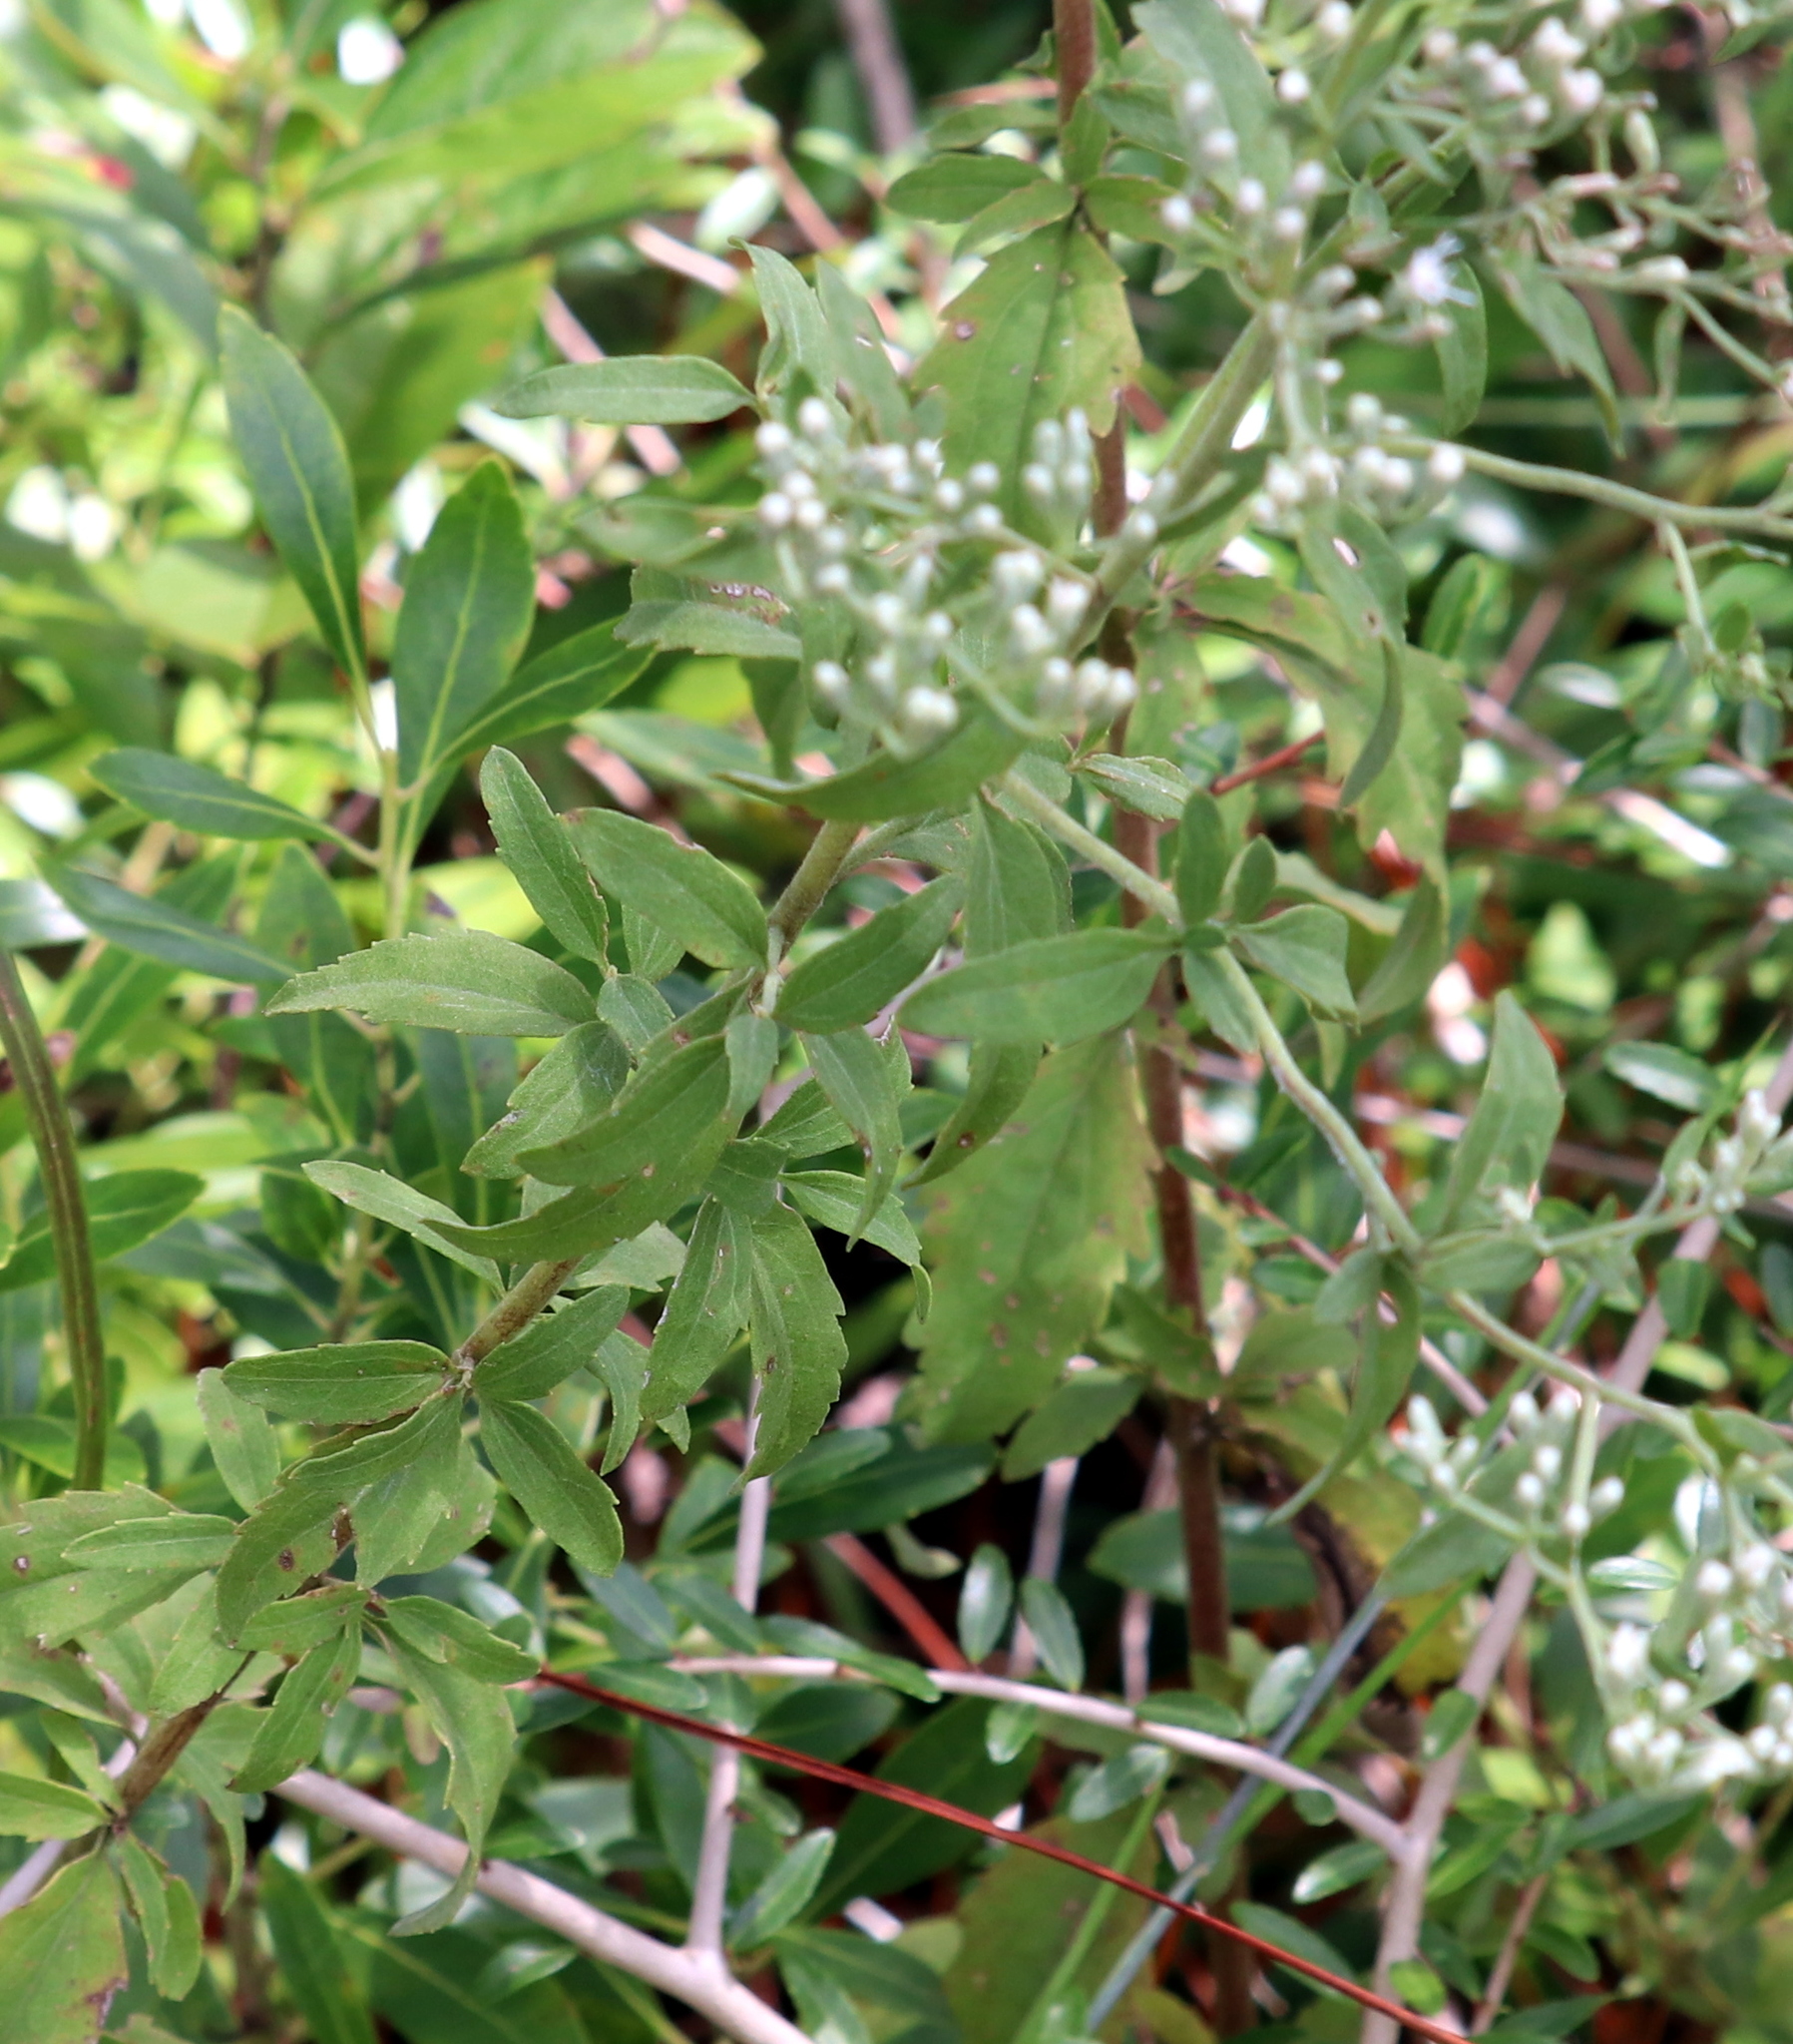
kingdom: Plantae
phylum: Tracheophyta
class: Magnoliopsida
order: Asterales
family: Asteraceae
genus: Eupatorium
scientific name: Eupatorium mohrii
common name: Mohr's thoroughwort
